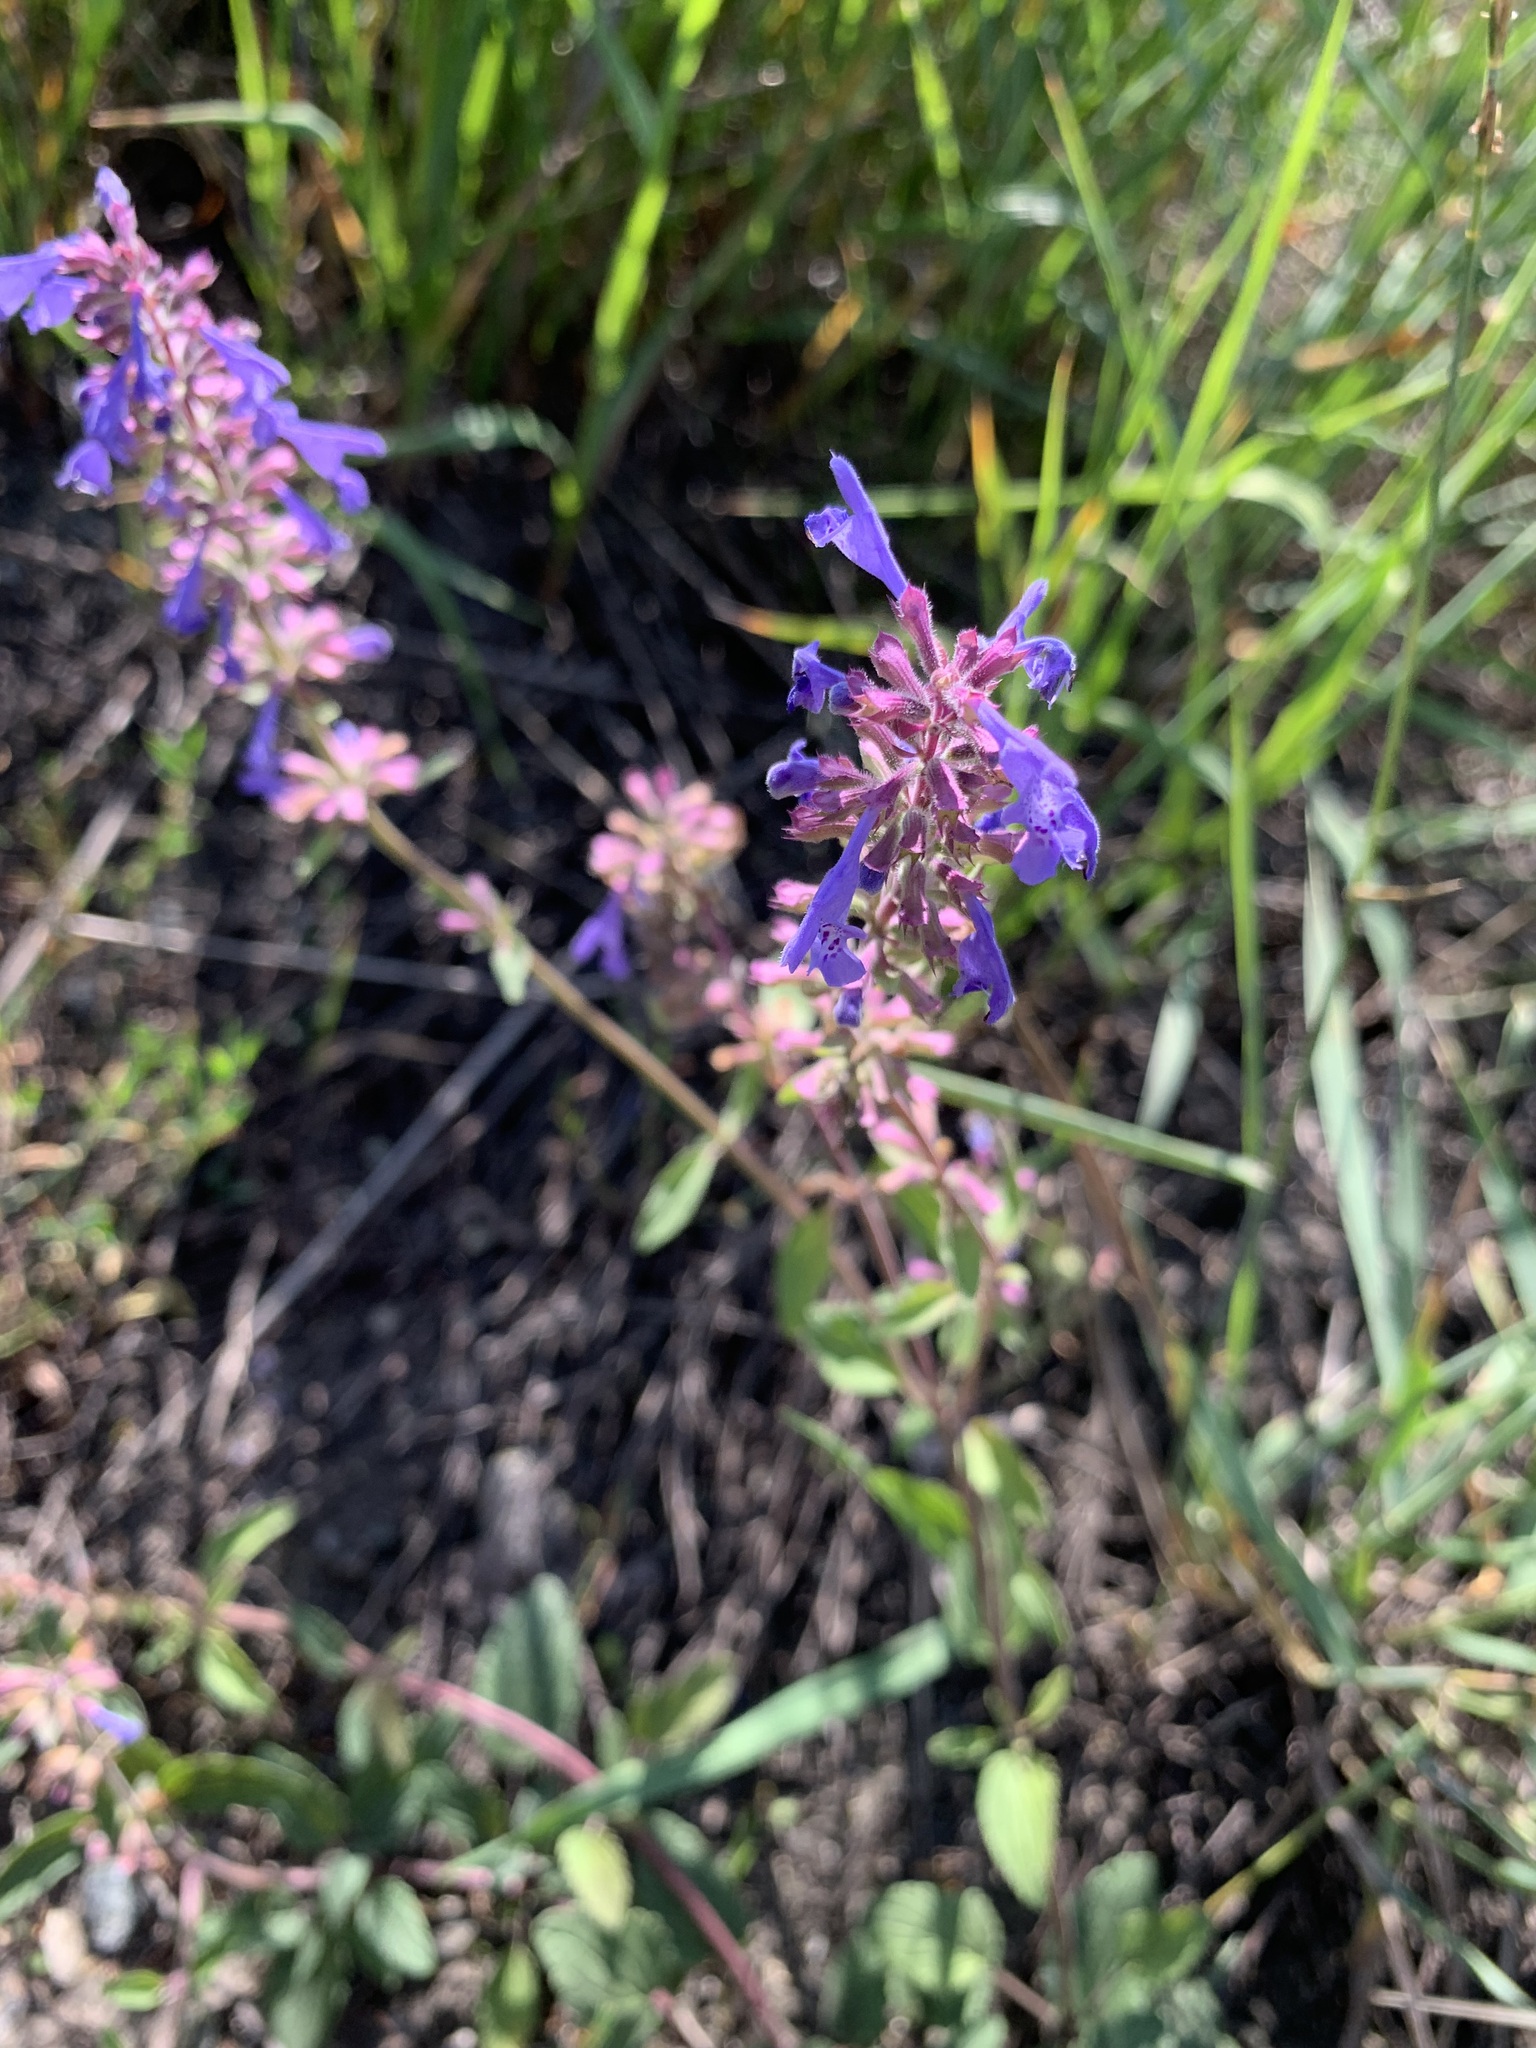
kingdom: Plantae
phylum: Tracheophyta
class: Magnoliopsida
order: Lamiales
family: Lamiaceae
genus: Dracocephalum
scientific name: Dracocephalum nutans
